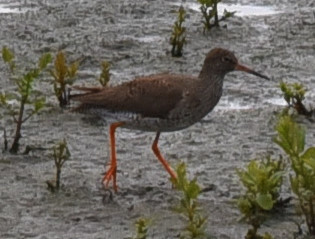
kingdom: Animalia
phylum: Chordata
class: Aves
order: Charadriiformes
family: Scolopacidae
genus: Tringa
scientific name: Tringa totanus
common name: Common redshank
